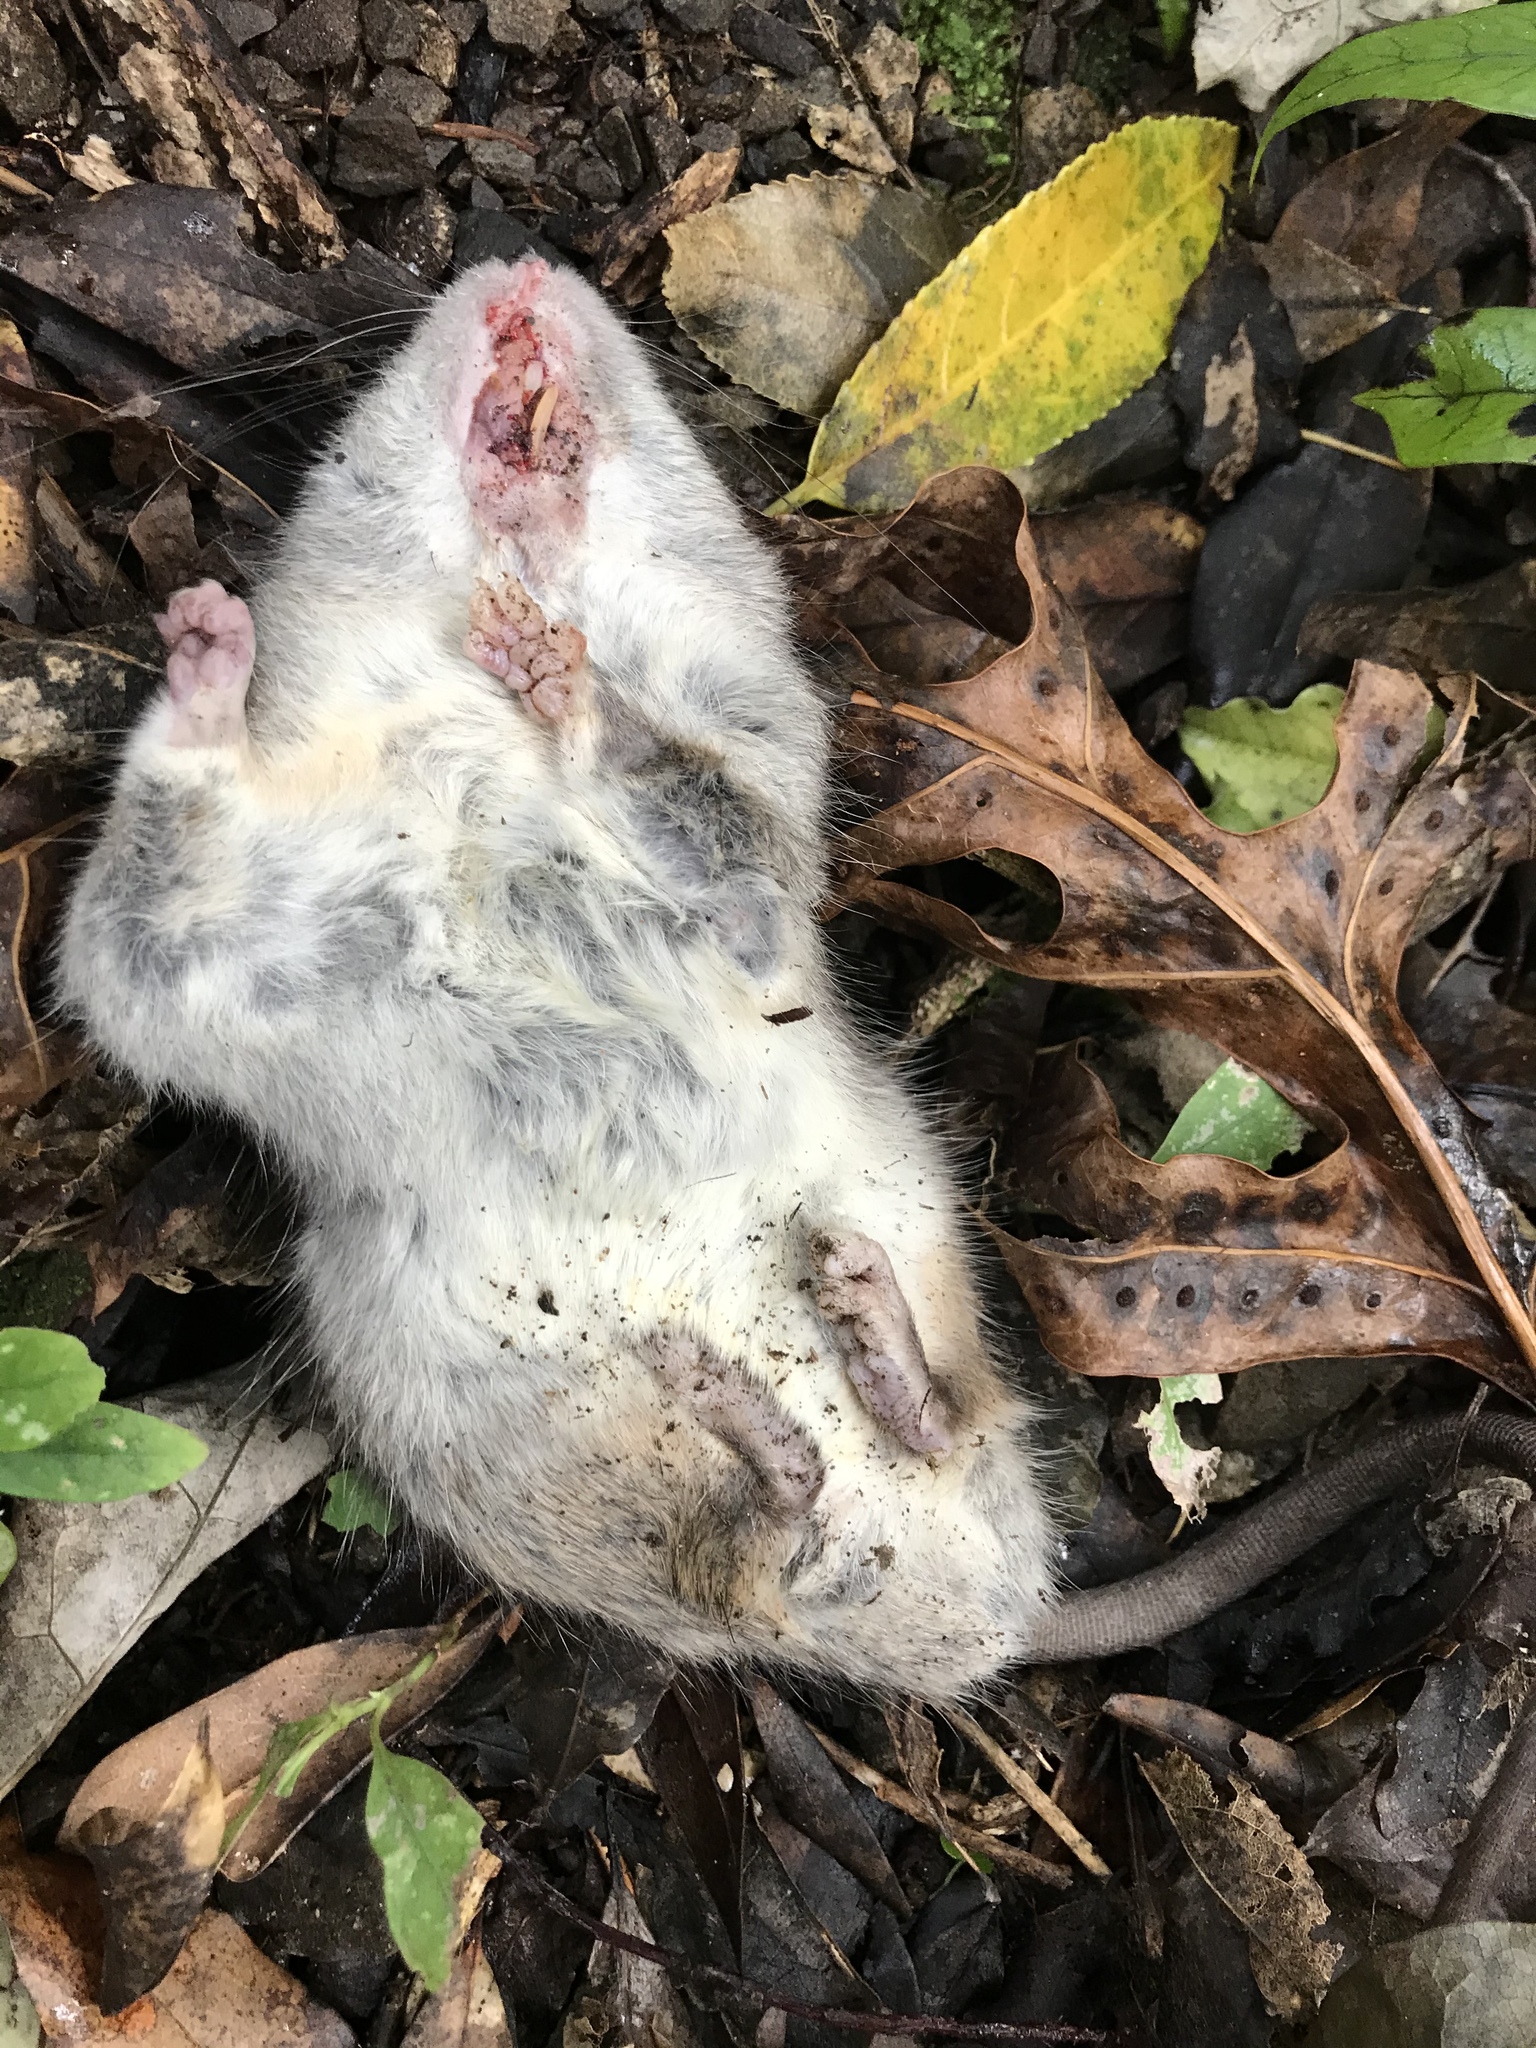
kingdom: Animalia
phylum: Chordata
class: Mammalia
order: Rodentia
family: Muridae
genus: Rattus
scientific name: Rattus rattus
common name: Black rat
